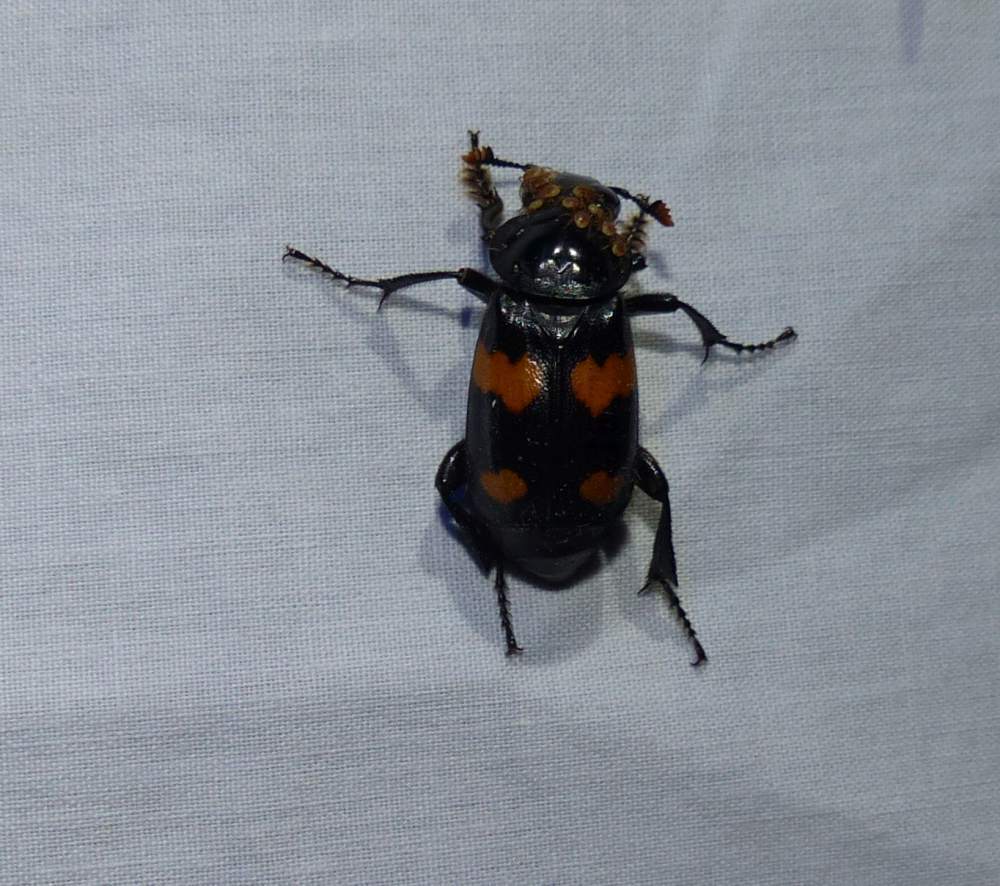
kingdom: Animalia
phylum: Arthropoda
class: Insecta
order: Coleoptera
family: Staphylinidae
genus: Nicrophorus
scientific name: Nicrophorus orbicollis
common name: Roundneck sexton beetle
